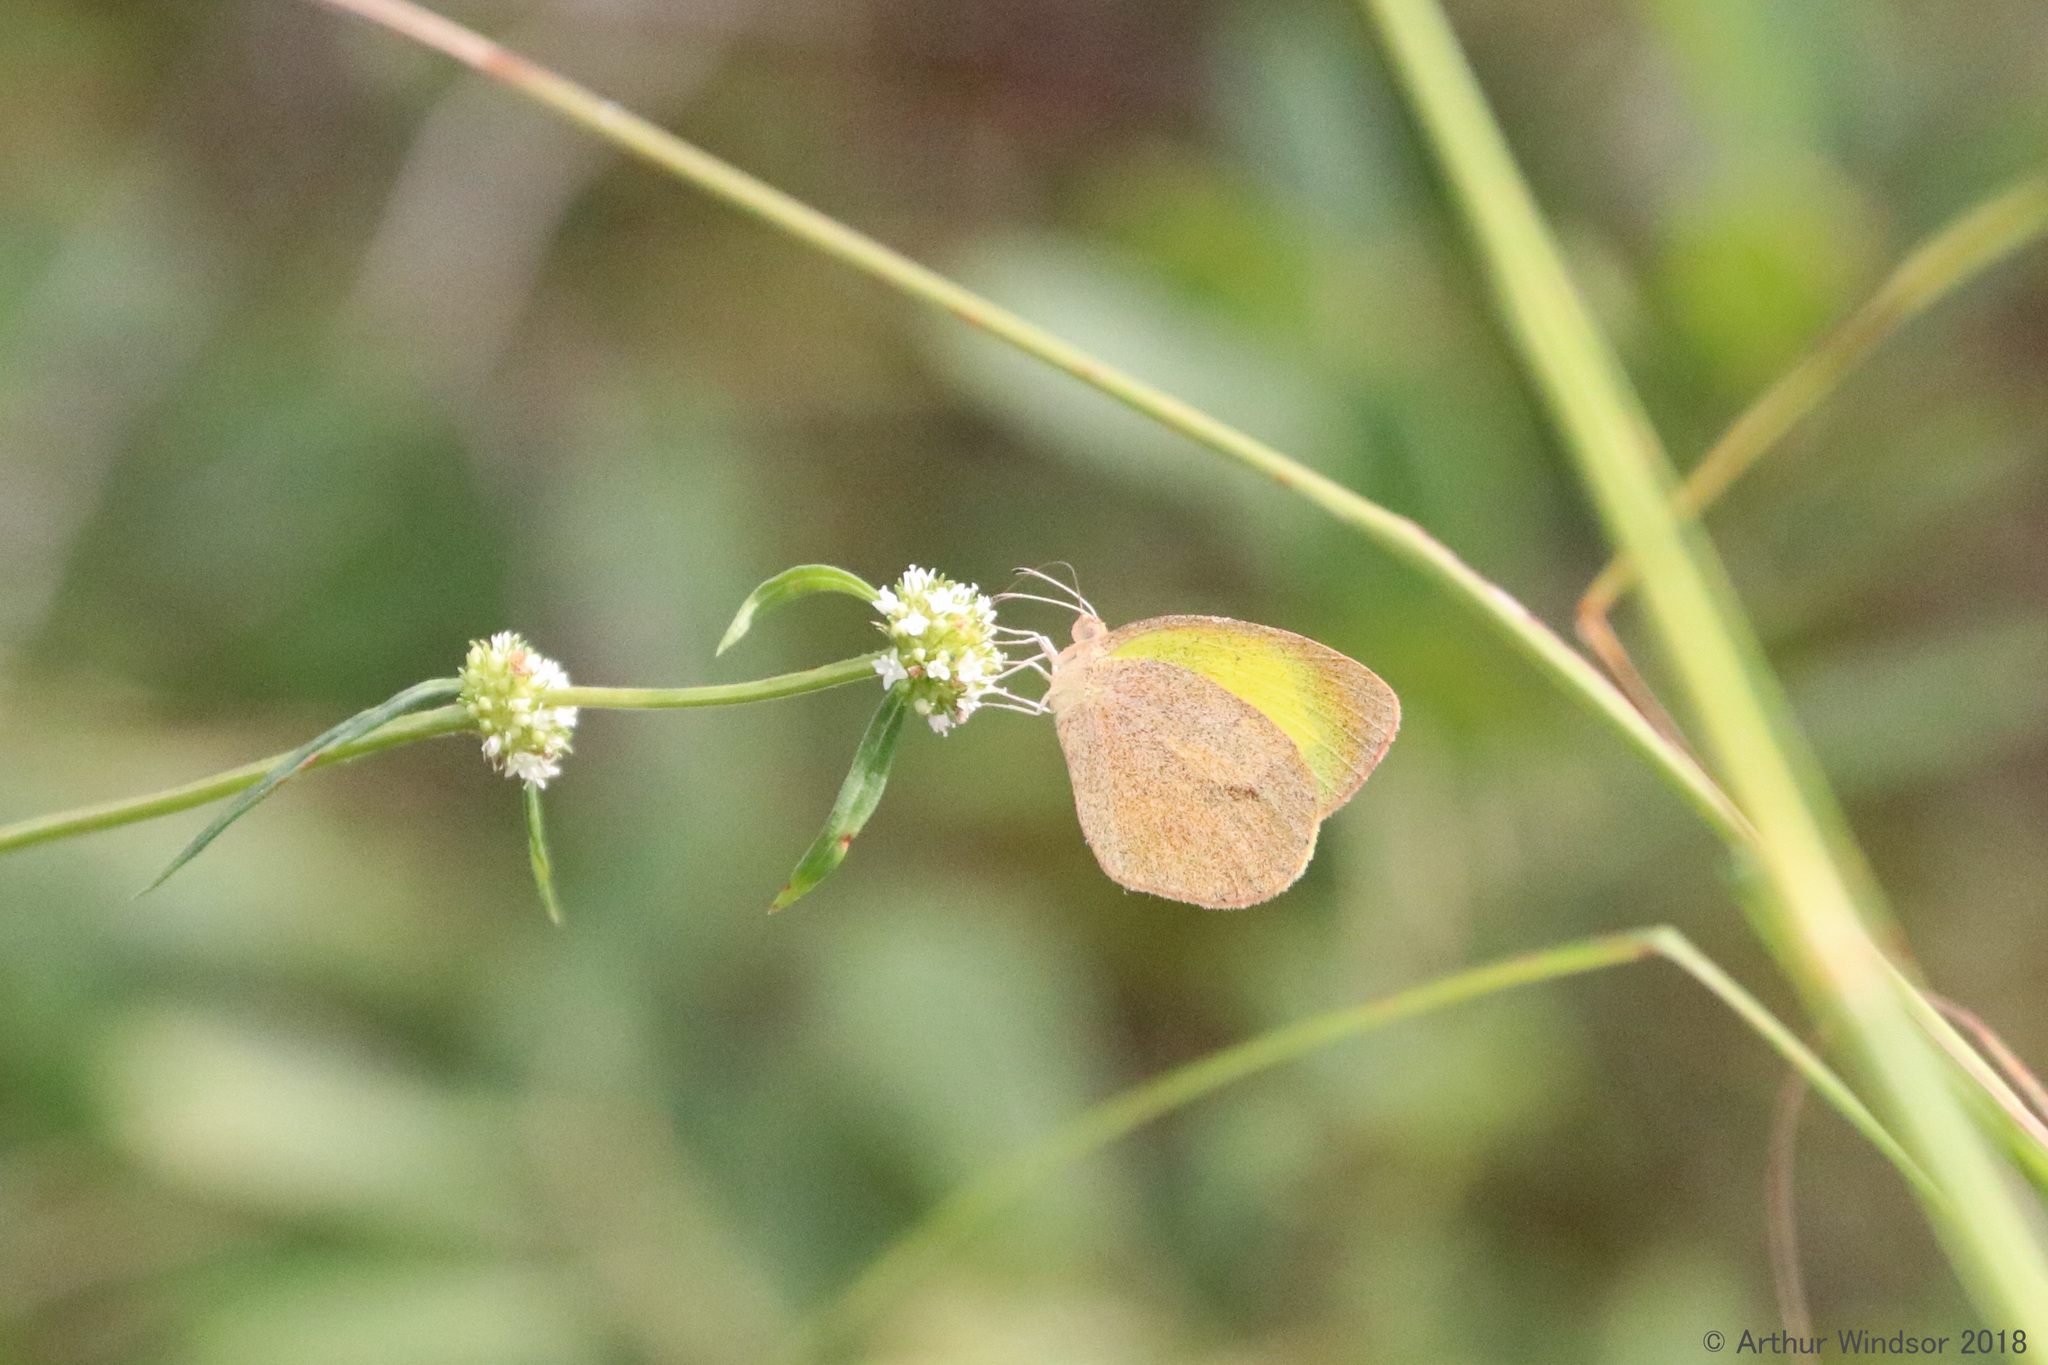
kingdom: Animalia
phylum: Arthropoda
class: Insecta
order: Lepidoptera
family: Pieridae
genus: Eurema
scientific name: Eurema daira
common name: Barred sulphur
